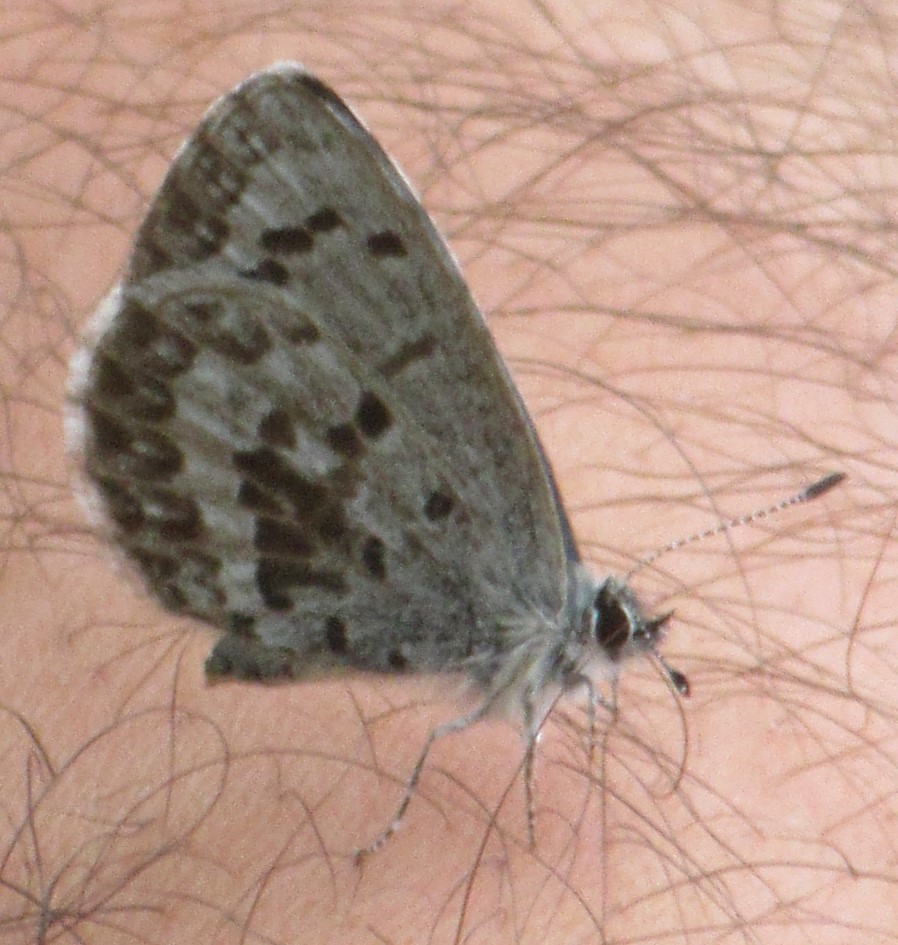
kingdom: Animalia
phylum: Arthropoda
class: Insecta
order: Lepidoptera
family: Lycaenidae
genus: Celastrina
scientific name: Celastrina lucia
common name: Lucia azure
